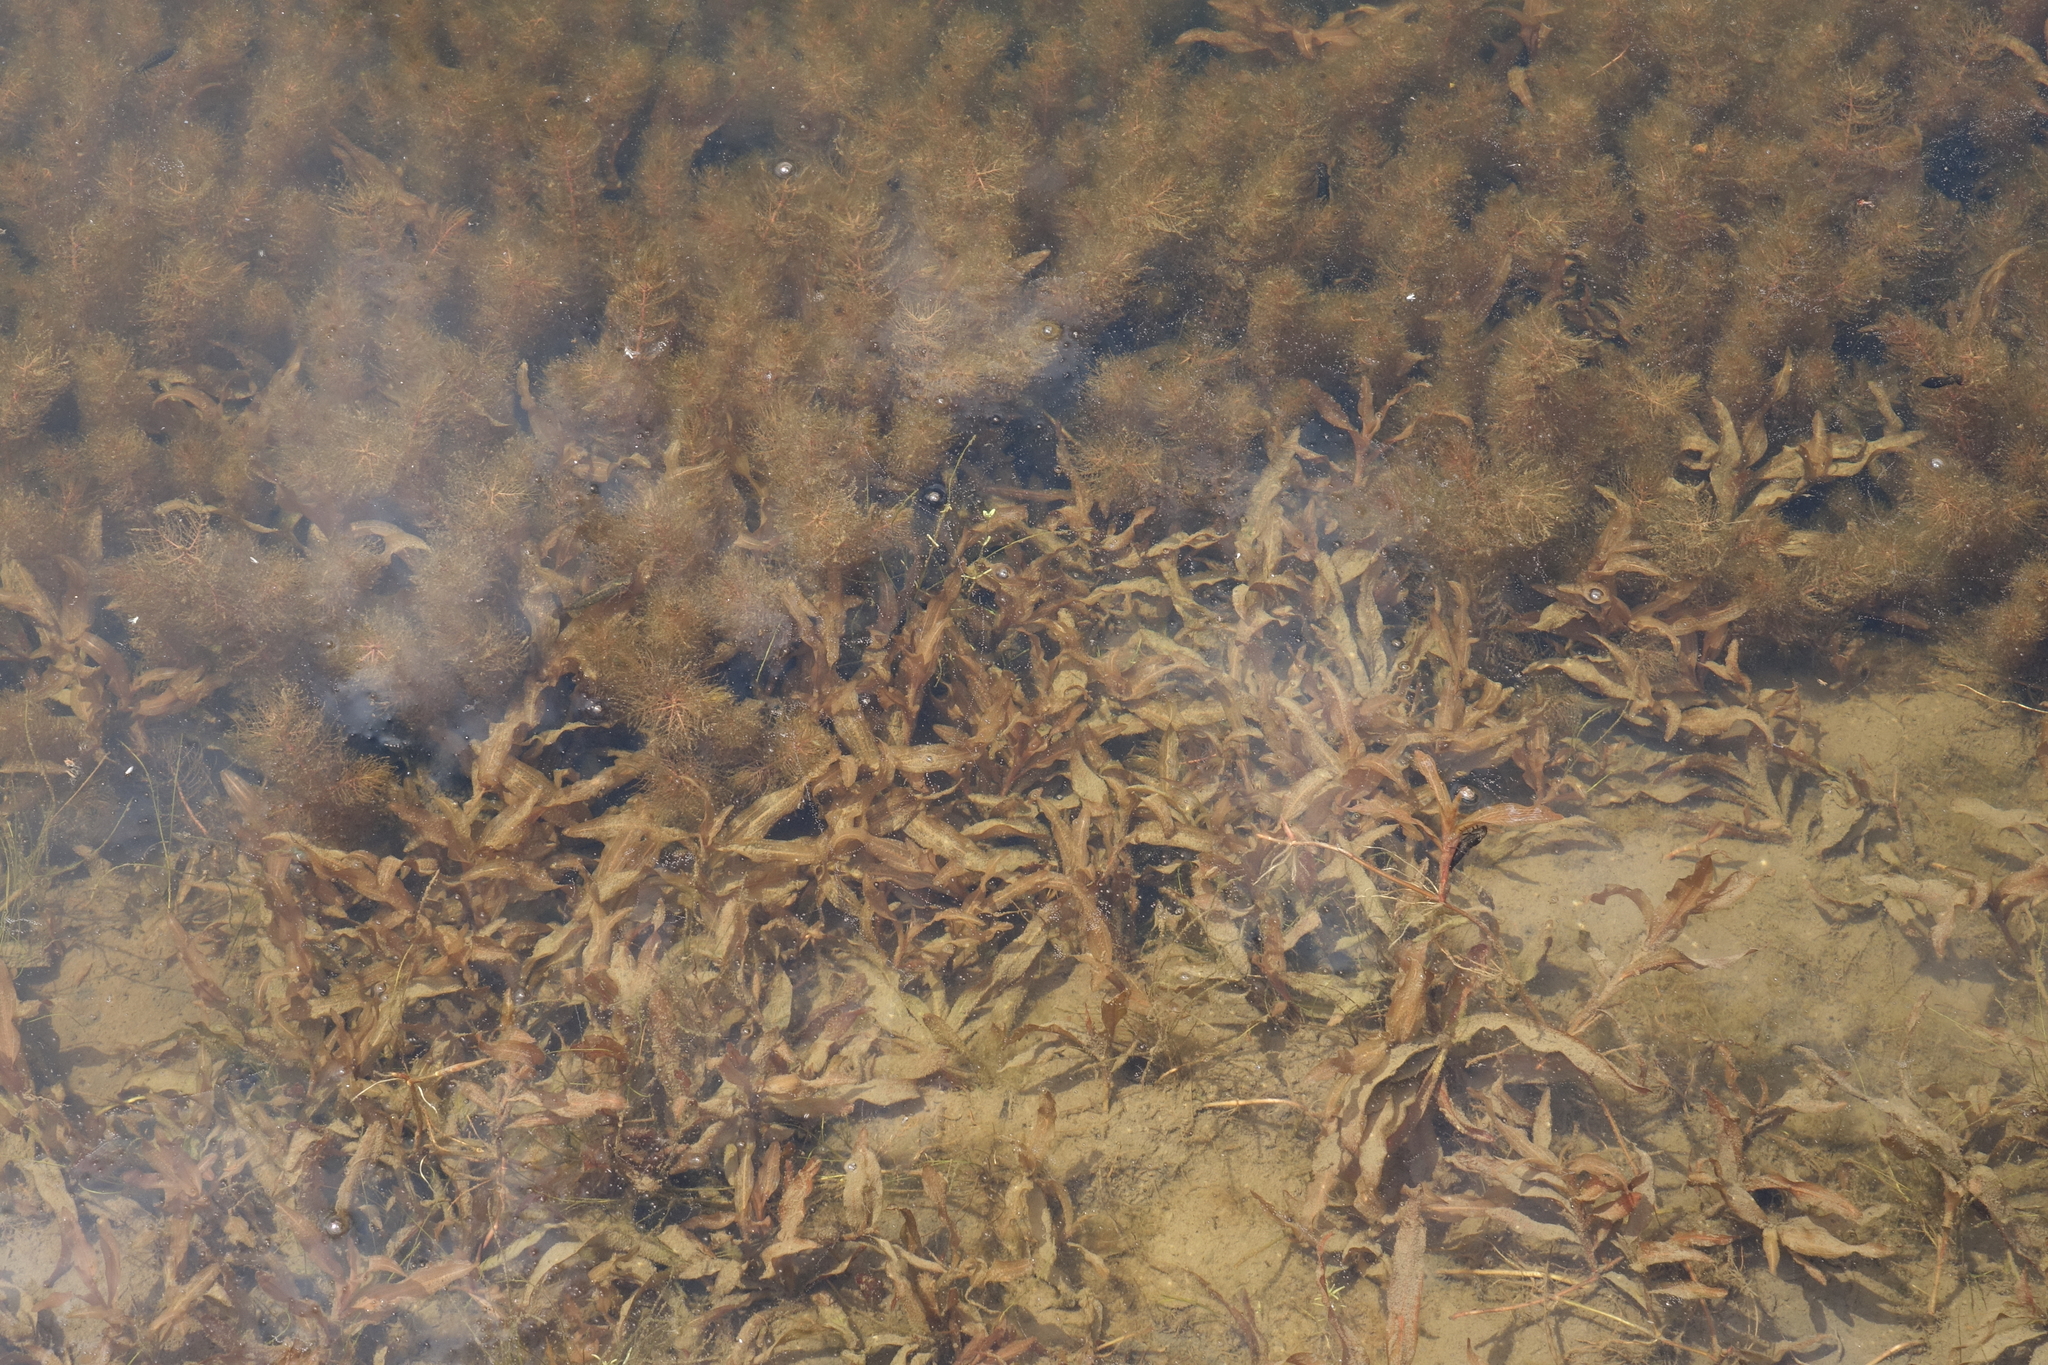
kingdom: Plantae
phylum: Tracheophyta
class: Liliopsida
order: Alismatales
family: Potamogetonaceae
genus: Potamogeton
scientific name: Potamogeton alpinus
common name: Red pondweed
